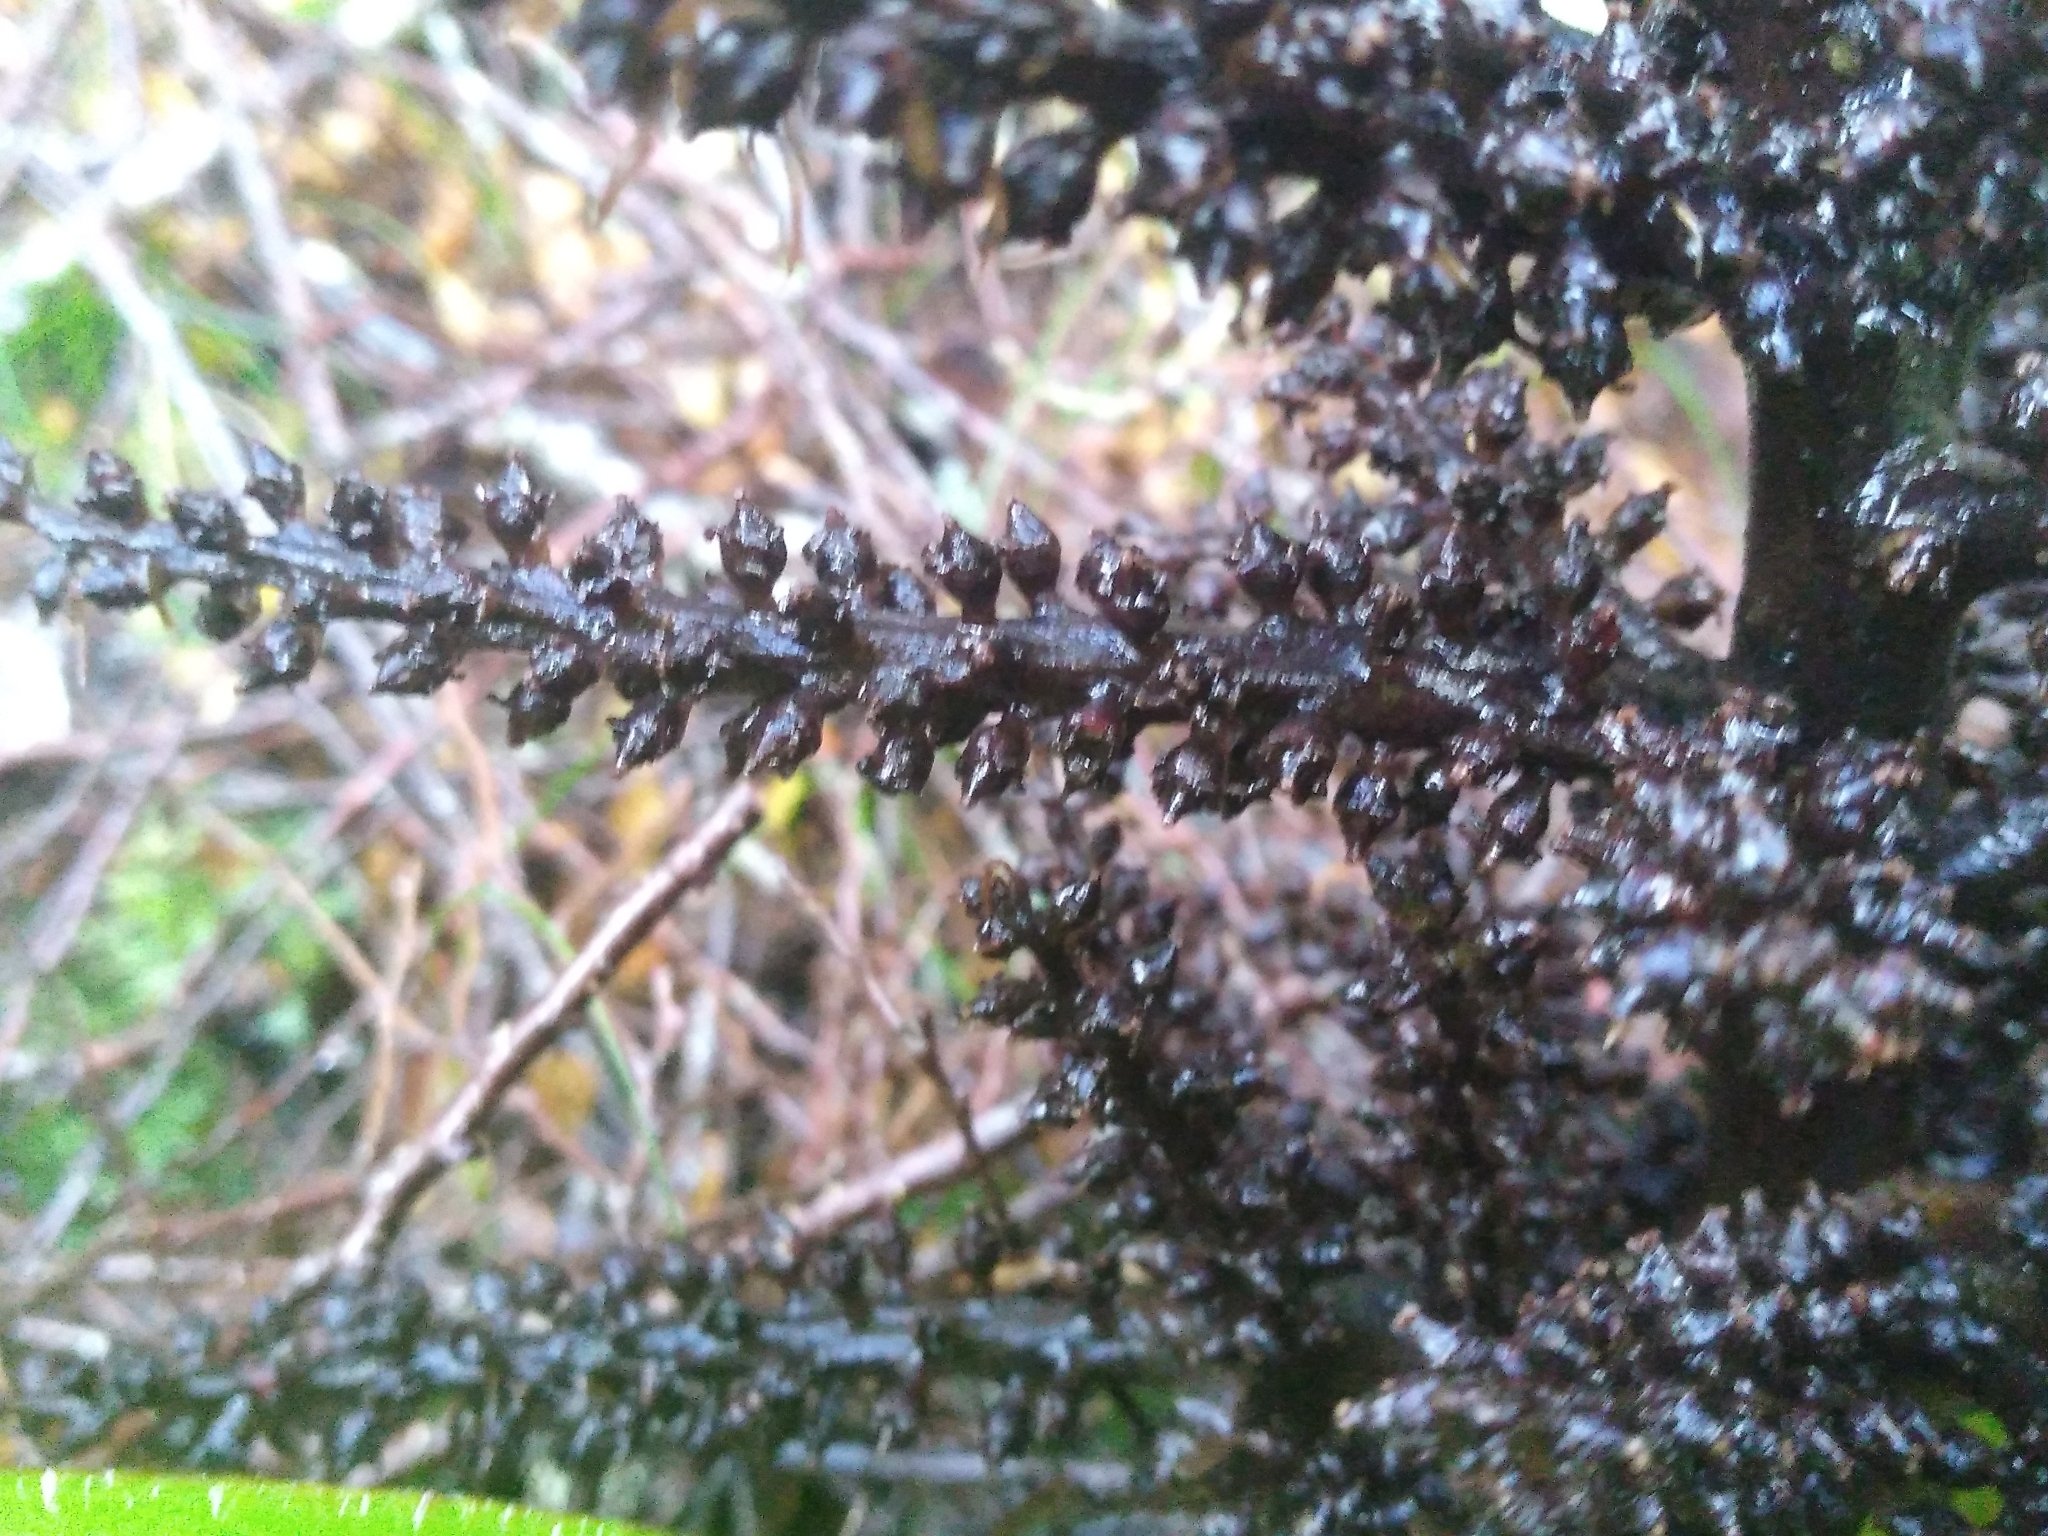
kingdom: Plantae
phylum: Tracheophyta
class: Liliopsida
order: Asparagales
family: Asteliaceae
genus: Astelia
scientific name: Astelia nivicola
